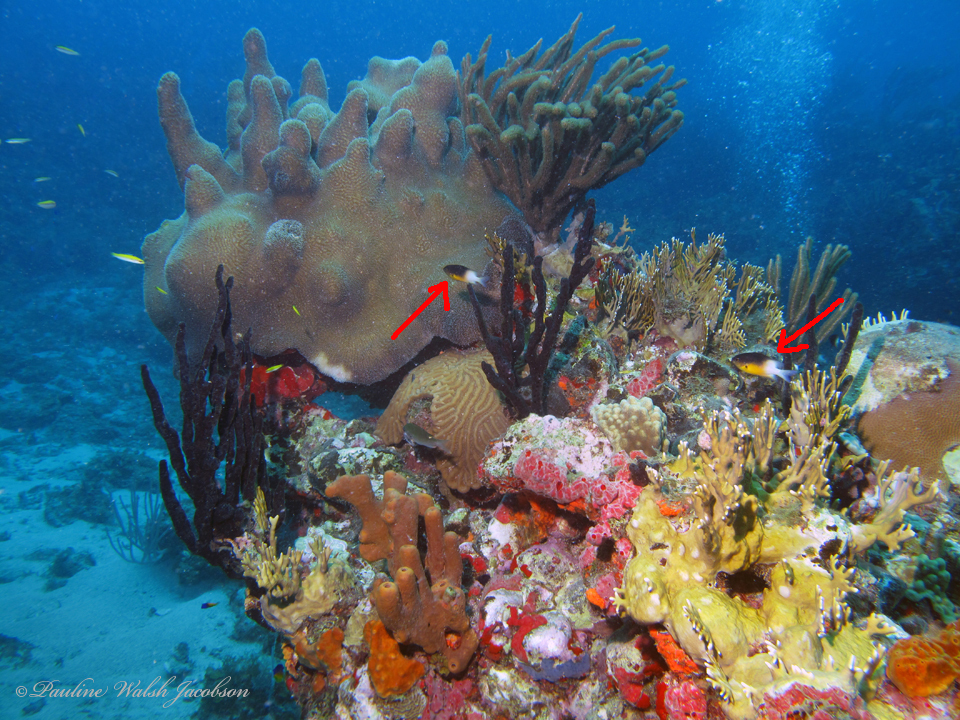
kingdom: Animalia
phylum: Chordata
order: Perciformes
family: Pomacentridae
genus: Stegastes
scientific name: Stegastes partitus
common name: Bicolor damselfish
